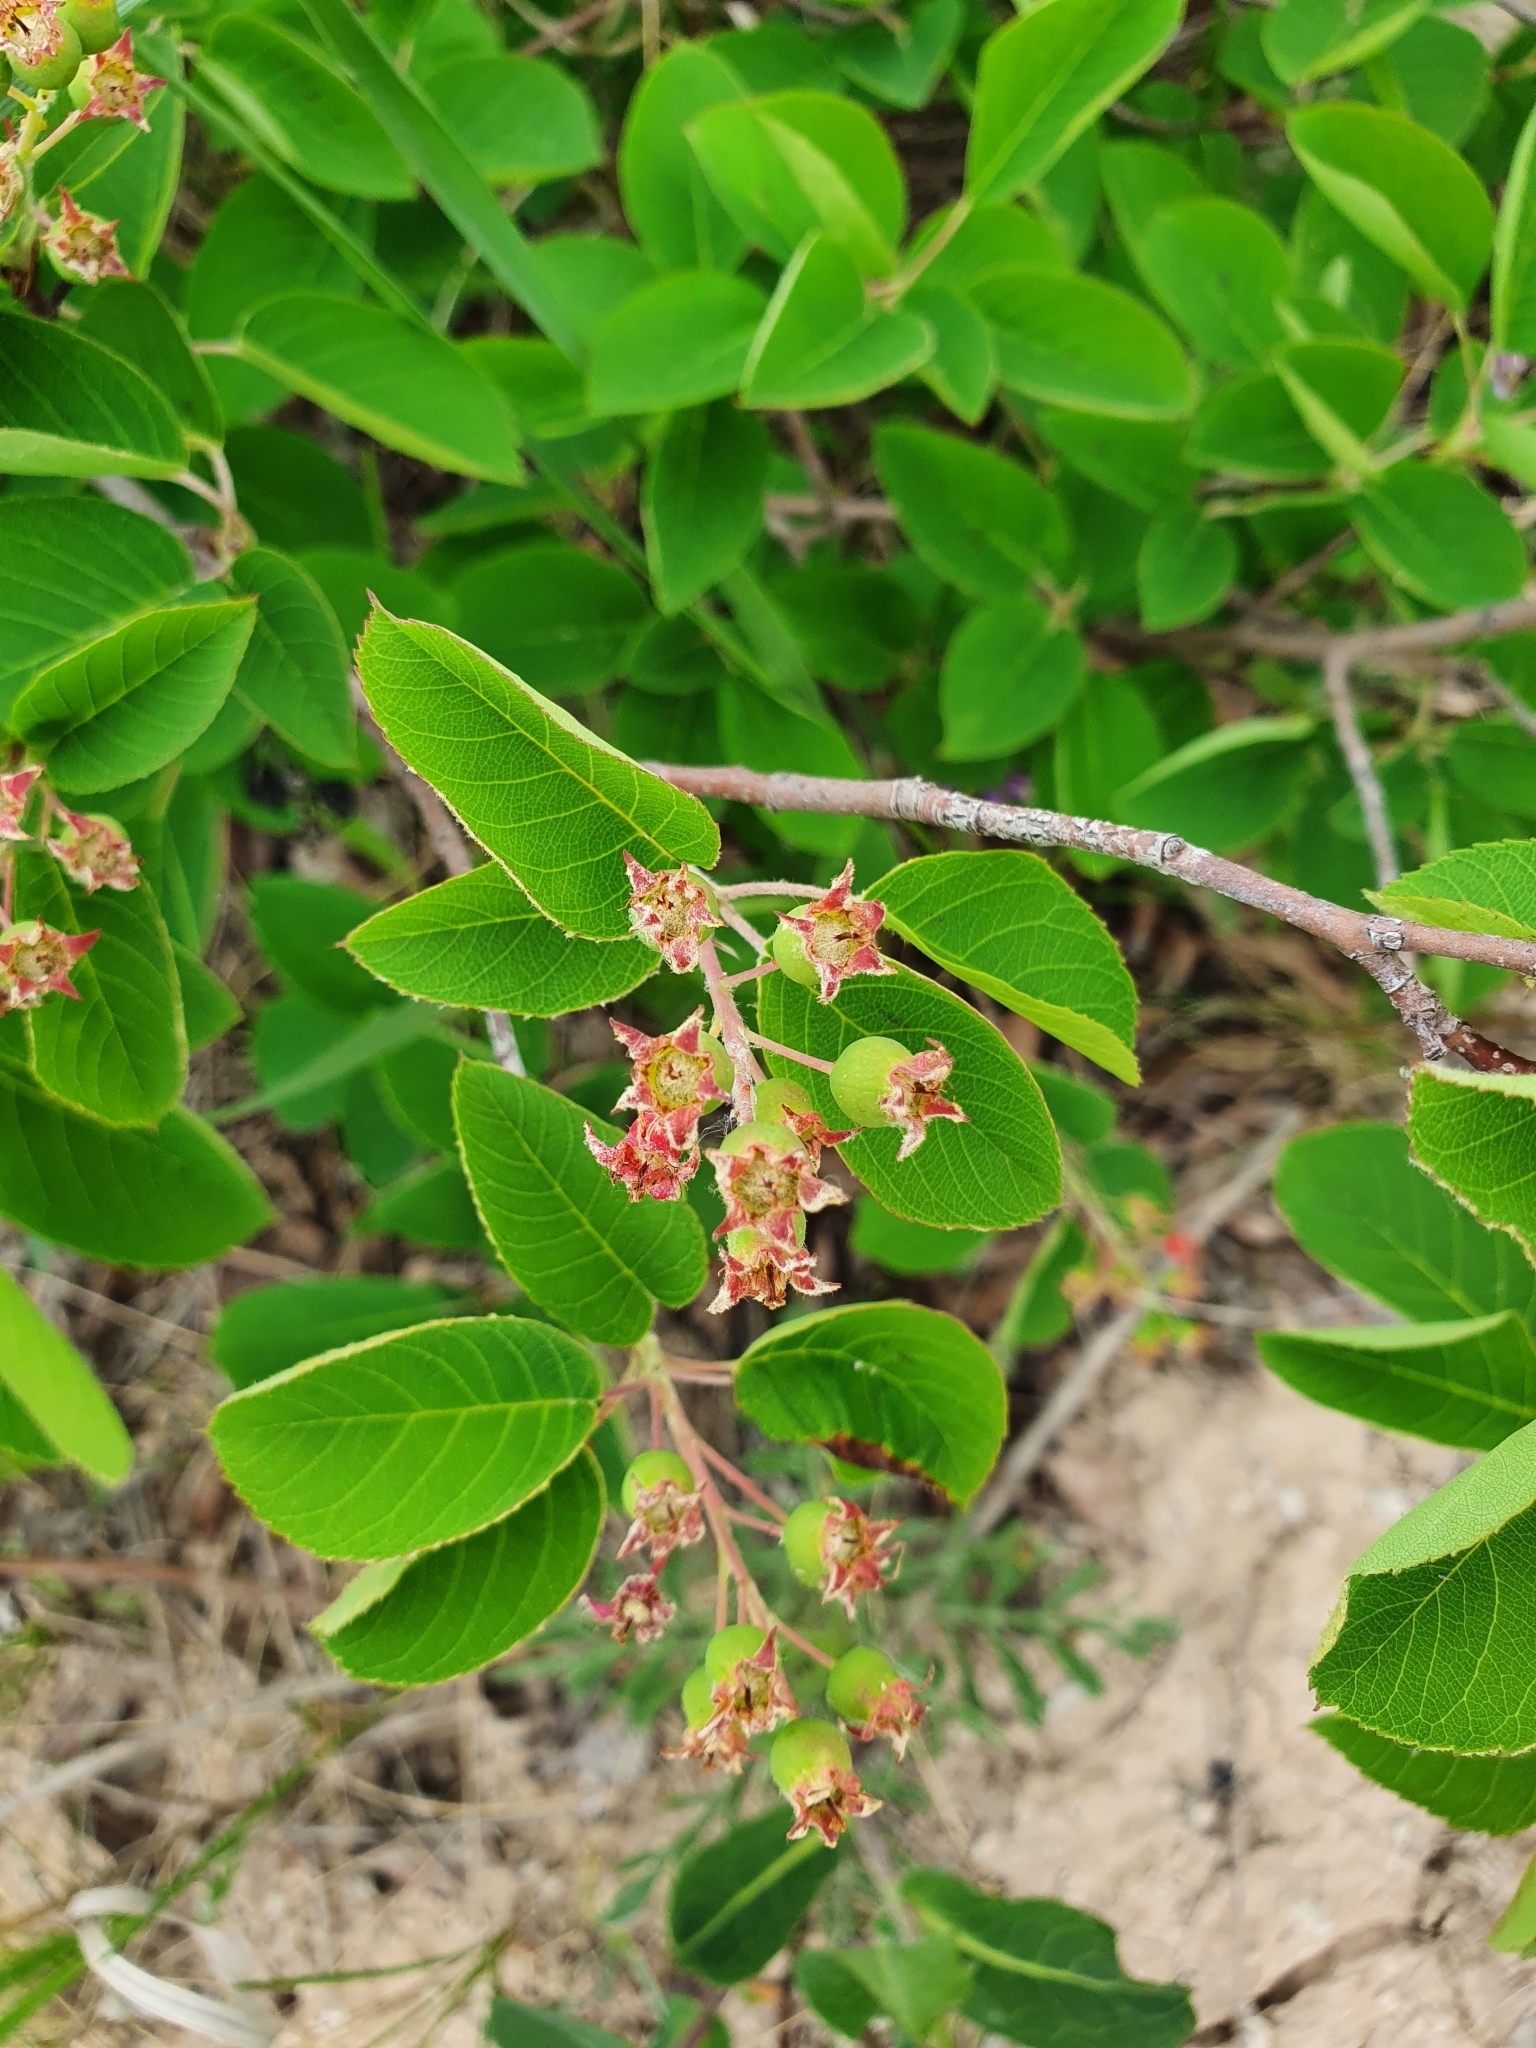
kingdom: Plantae
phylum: Tracheophyta
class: Magnoliopsida
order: Rosales
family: Rosaceae
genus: Amelanchier
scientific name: Amelanchier
